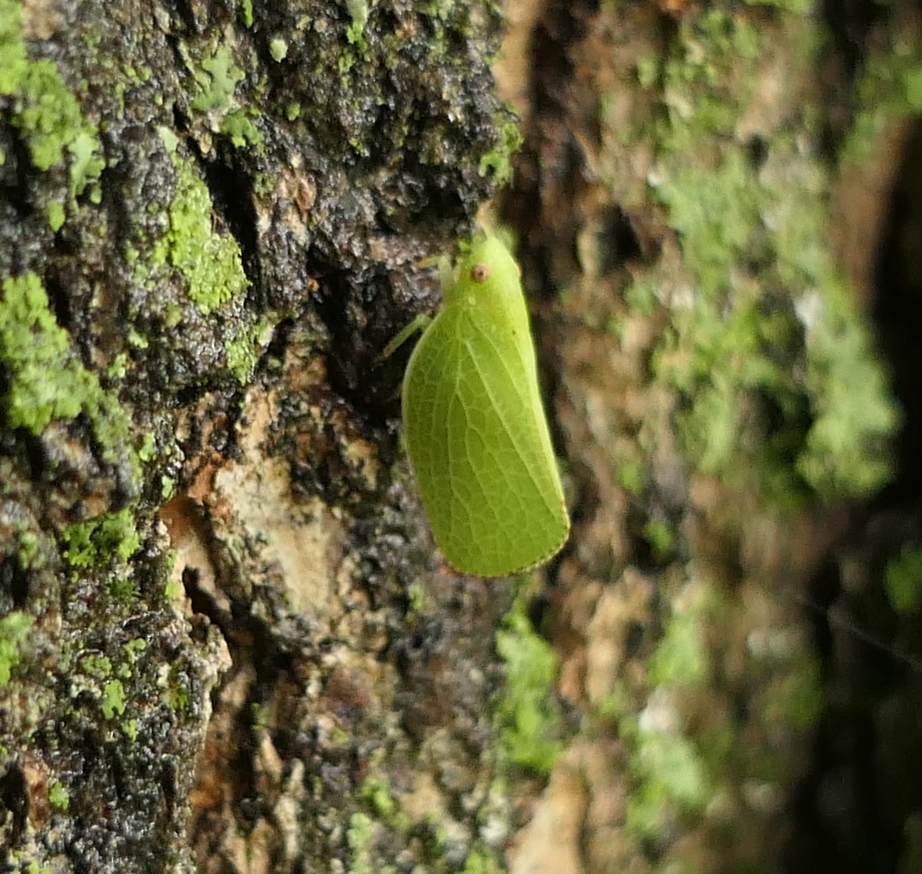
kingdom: Animalia
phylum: Arthropoda
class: Insecta
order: Hemiptera
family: Acanaloniidae
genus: Acanalonia
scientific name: Acanalonia conica
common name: Green cone-headed planthopper
